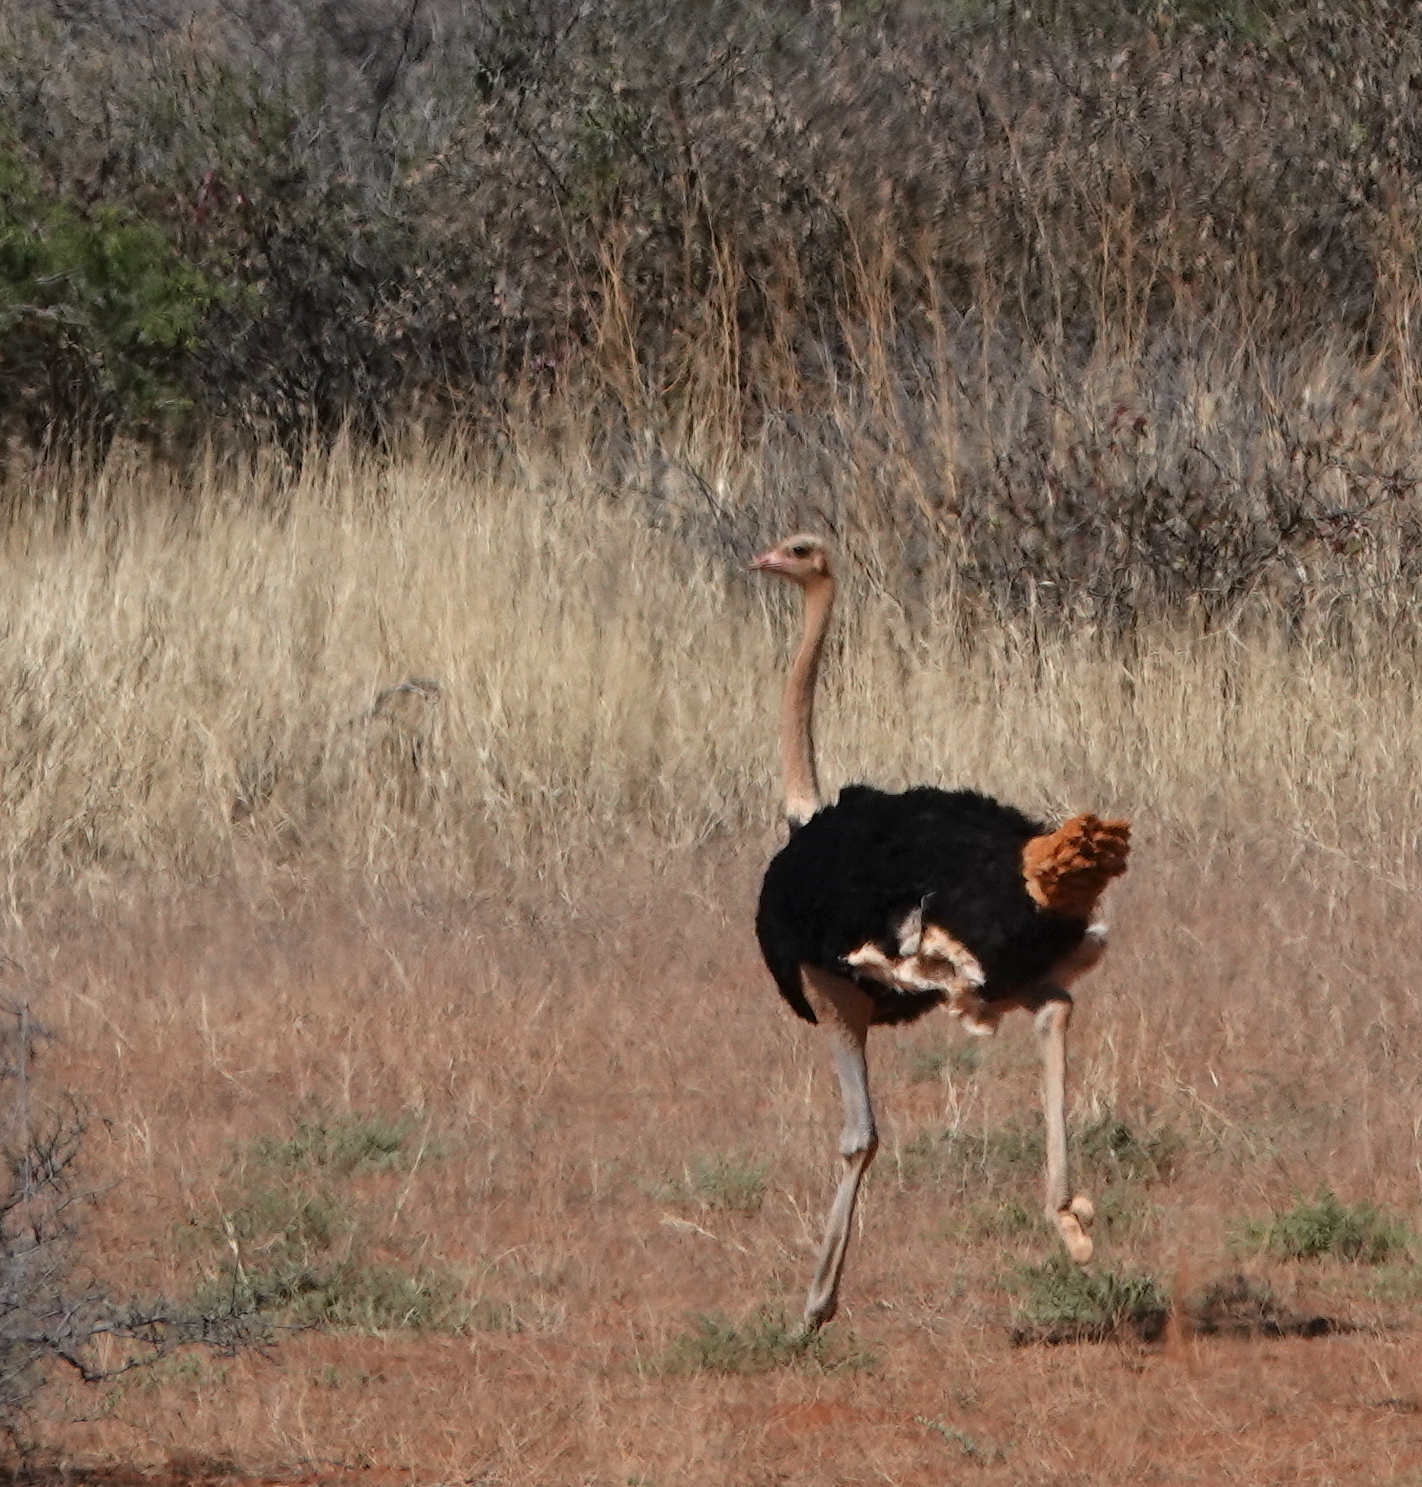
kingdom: Animalia
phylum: Chordata
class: Aves
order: Struthioniformes
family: Struthionidae
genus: Struthio
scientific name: Struthio camelus
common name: Common ostrich
